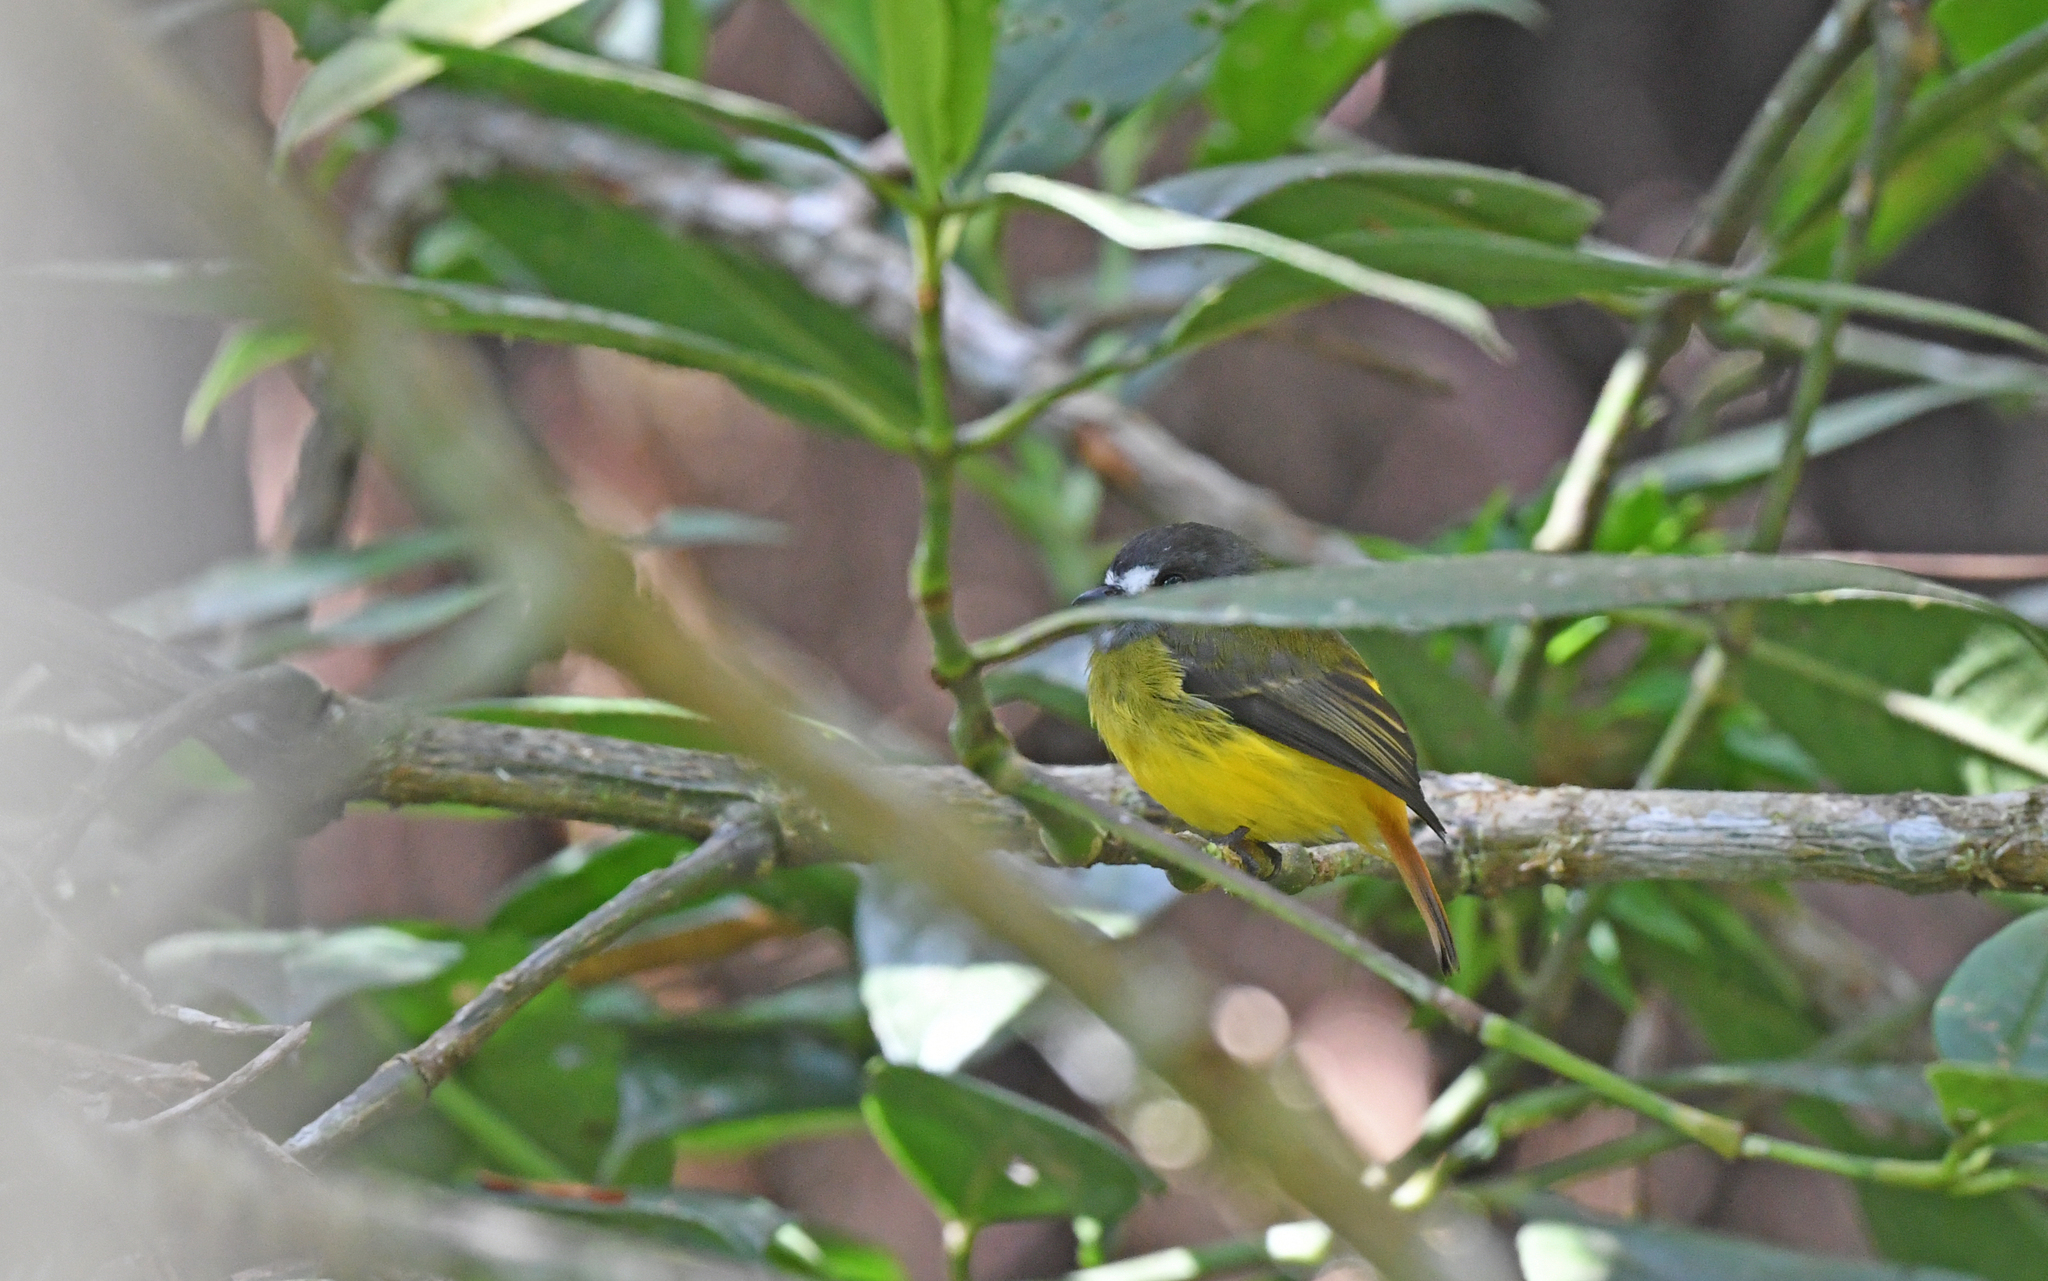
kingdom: Animalia
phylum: Chordata
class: Aves
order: Passeriformes
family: Tyrannidae
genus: Myiotriccus
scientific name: Myiotriccus ornatus
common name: Ornate flycatcher
